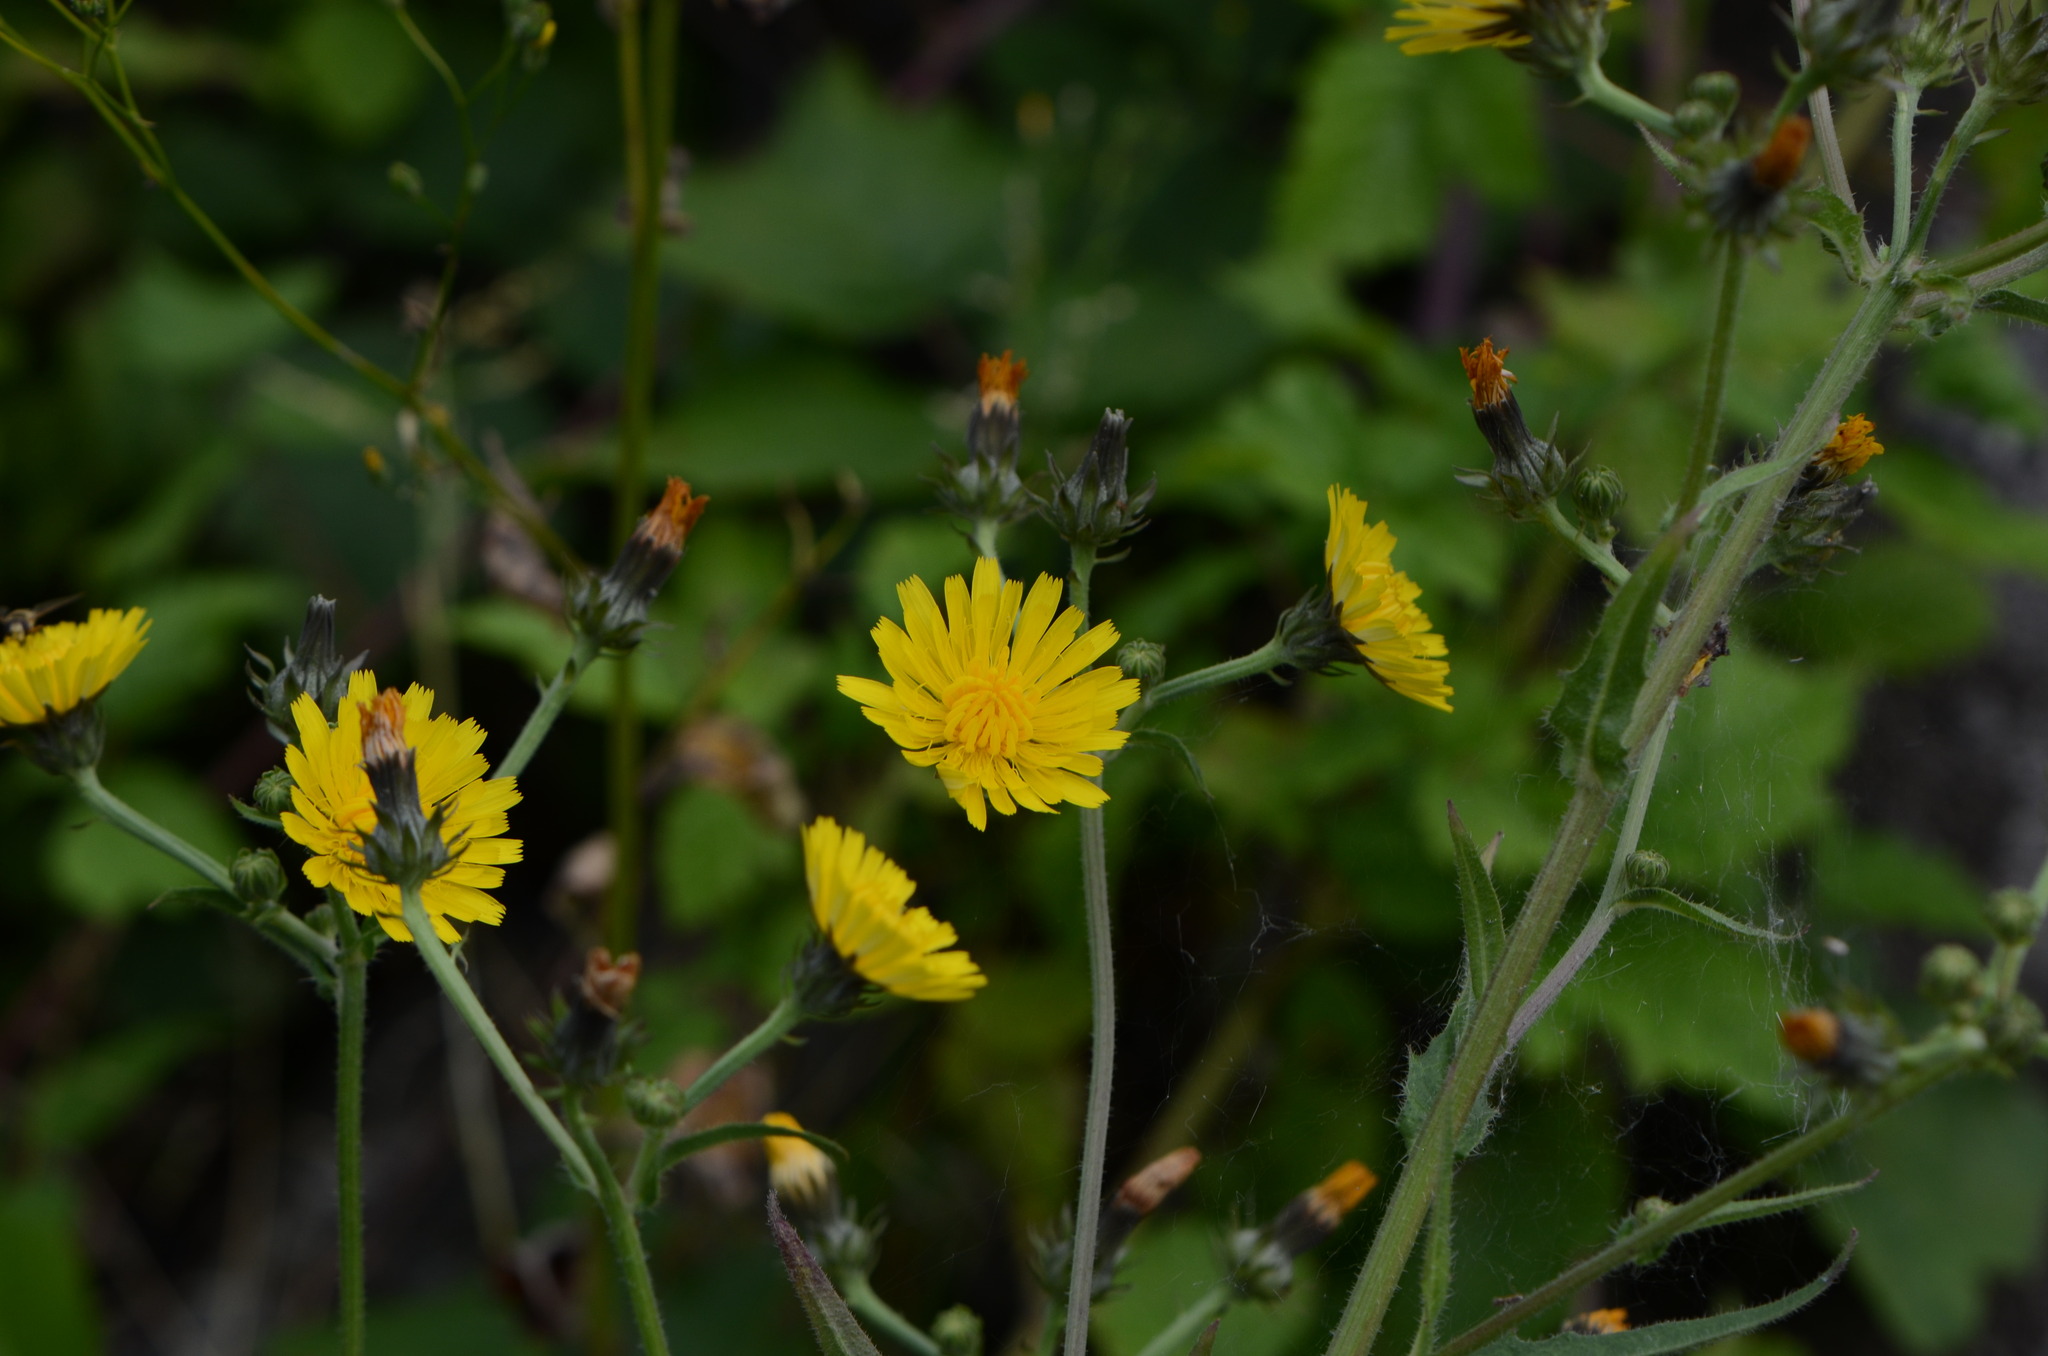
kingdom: Plantae
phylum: Tracheophyta
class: Magnoliopsida
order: Asterales
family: Asteraceae
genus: Picris
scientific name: Picris hieracioides
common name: Hawkweed oxtongue
